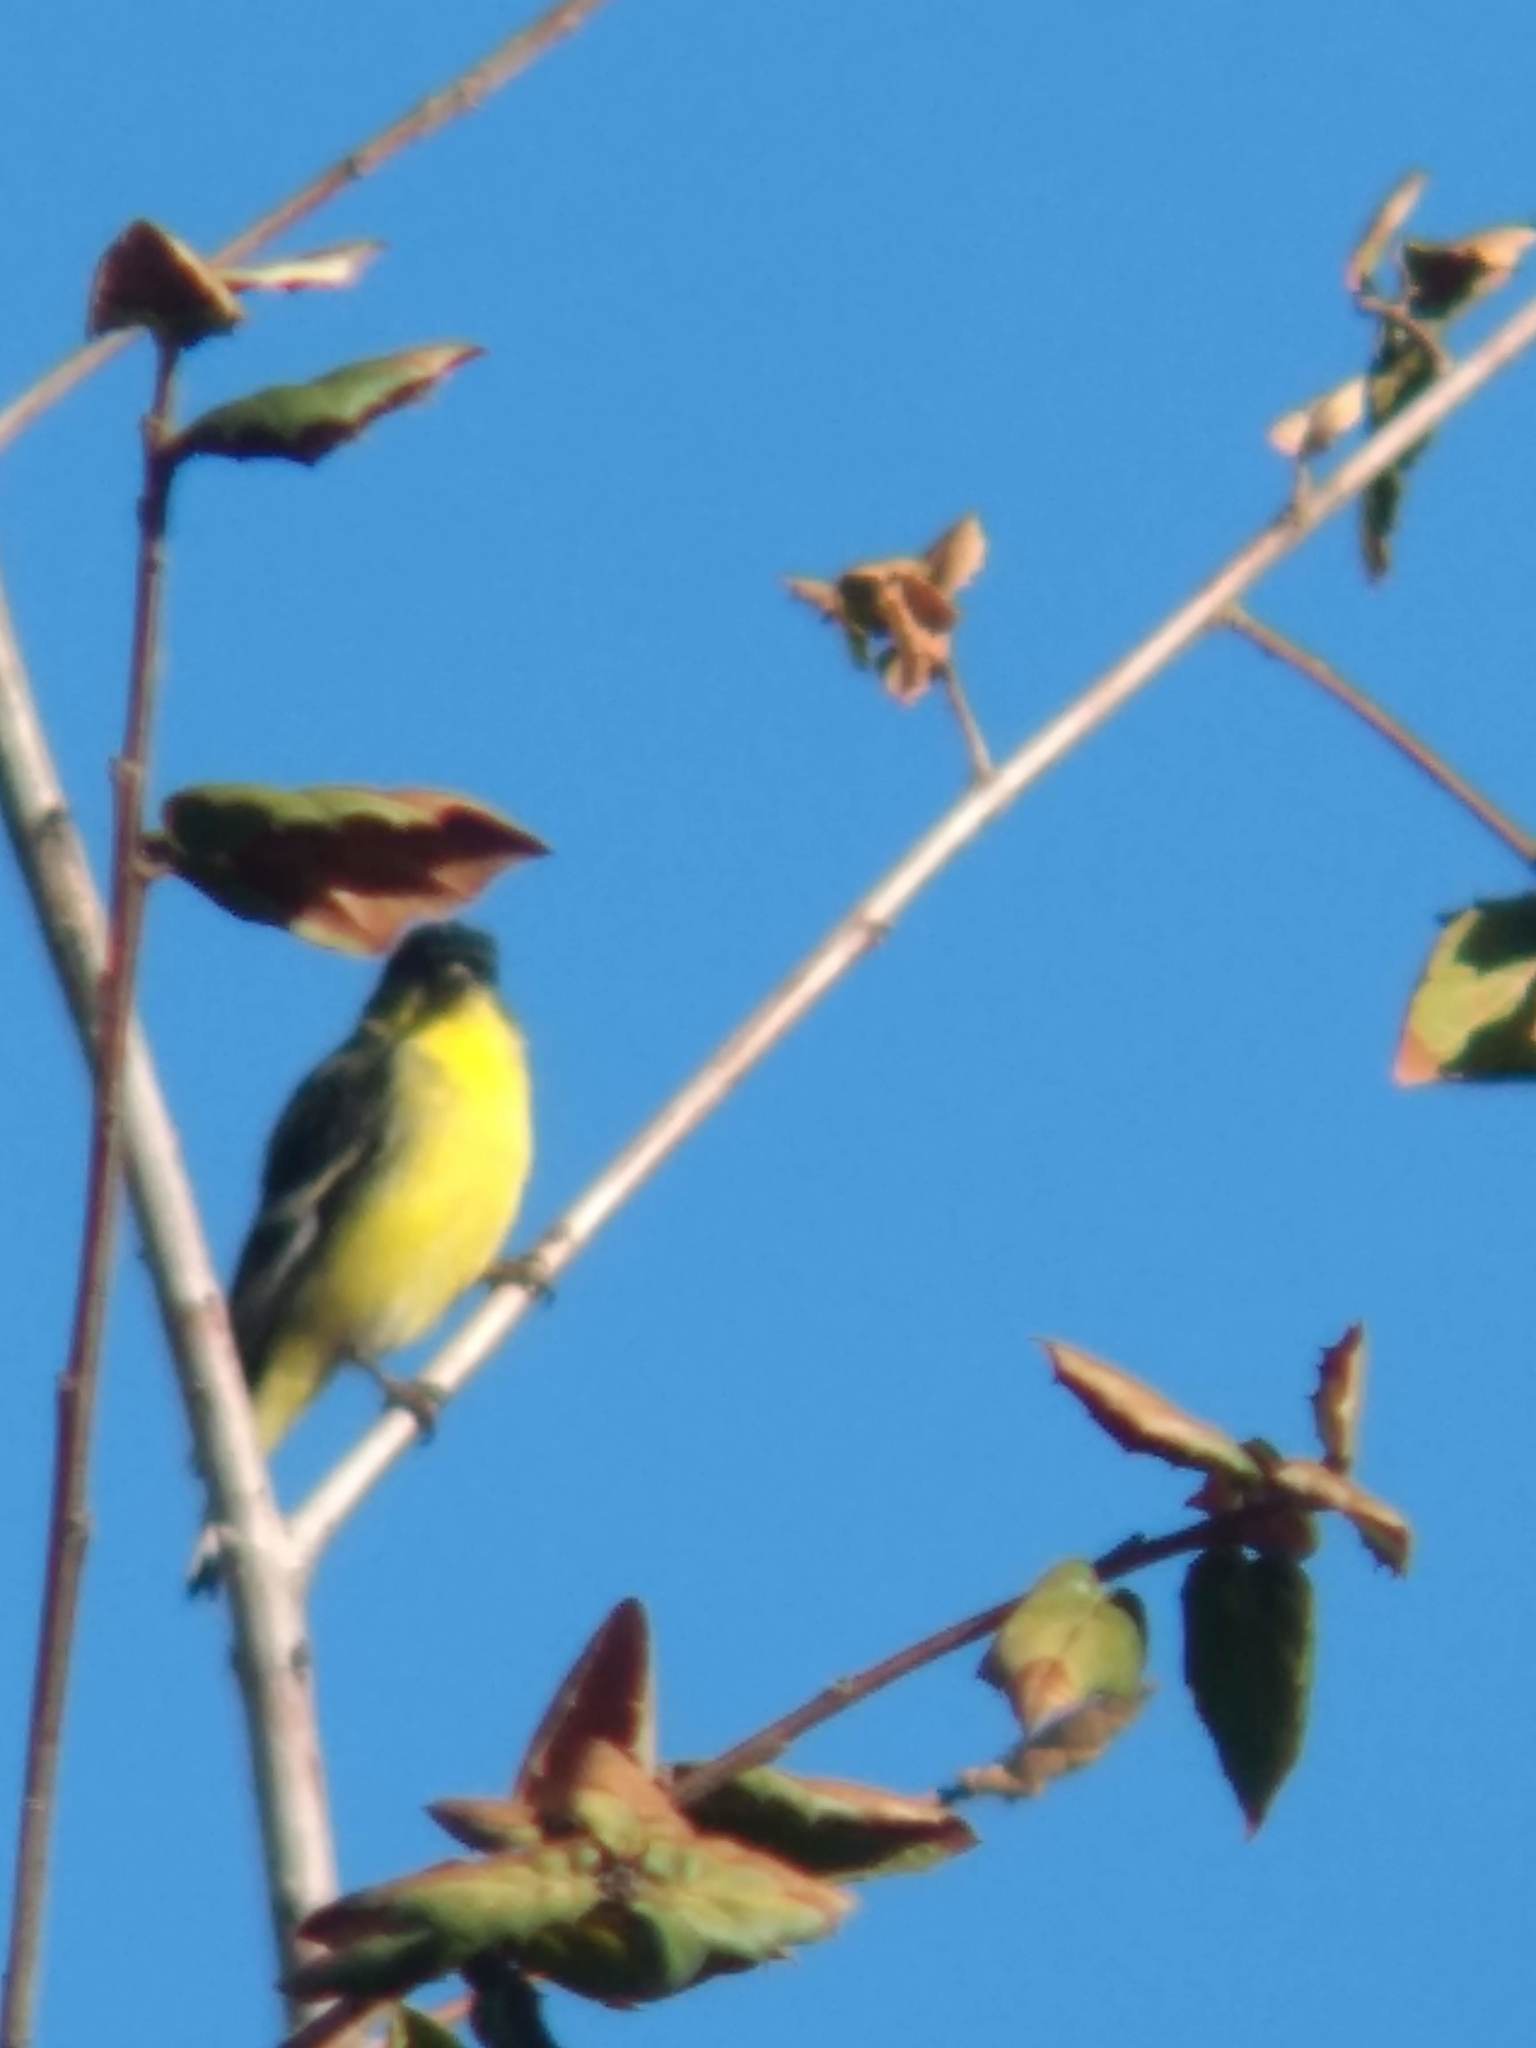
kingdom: Animalia
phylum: Chordata
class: Aves
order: Passeriformes
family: Fringillidae
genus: Spinus
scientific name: Spinus psaltria
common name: Lesser goldfinch
